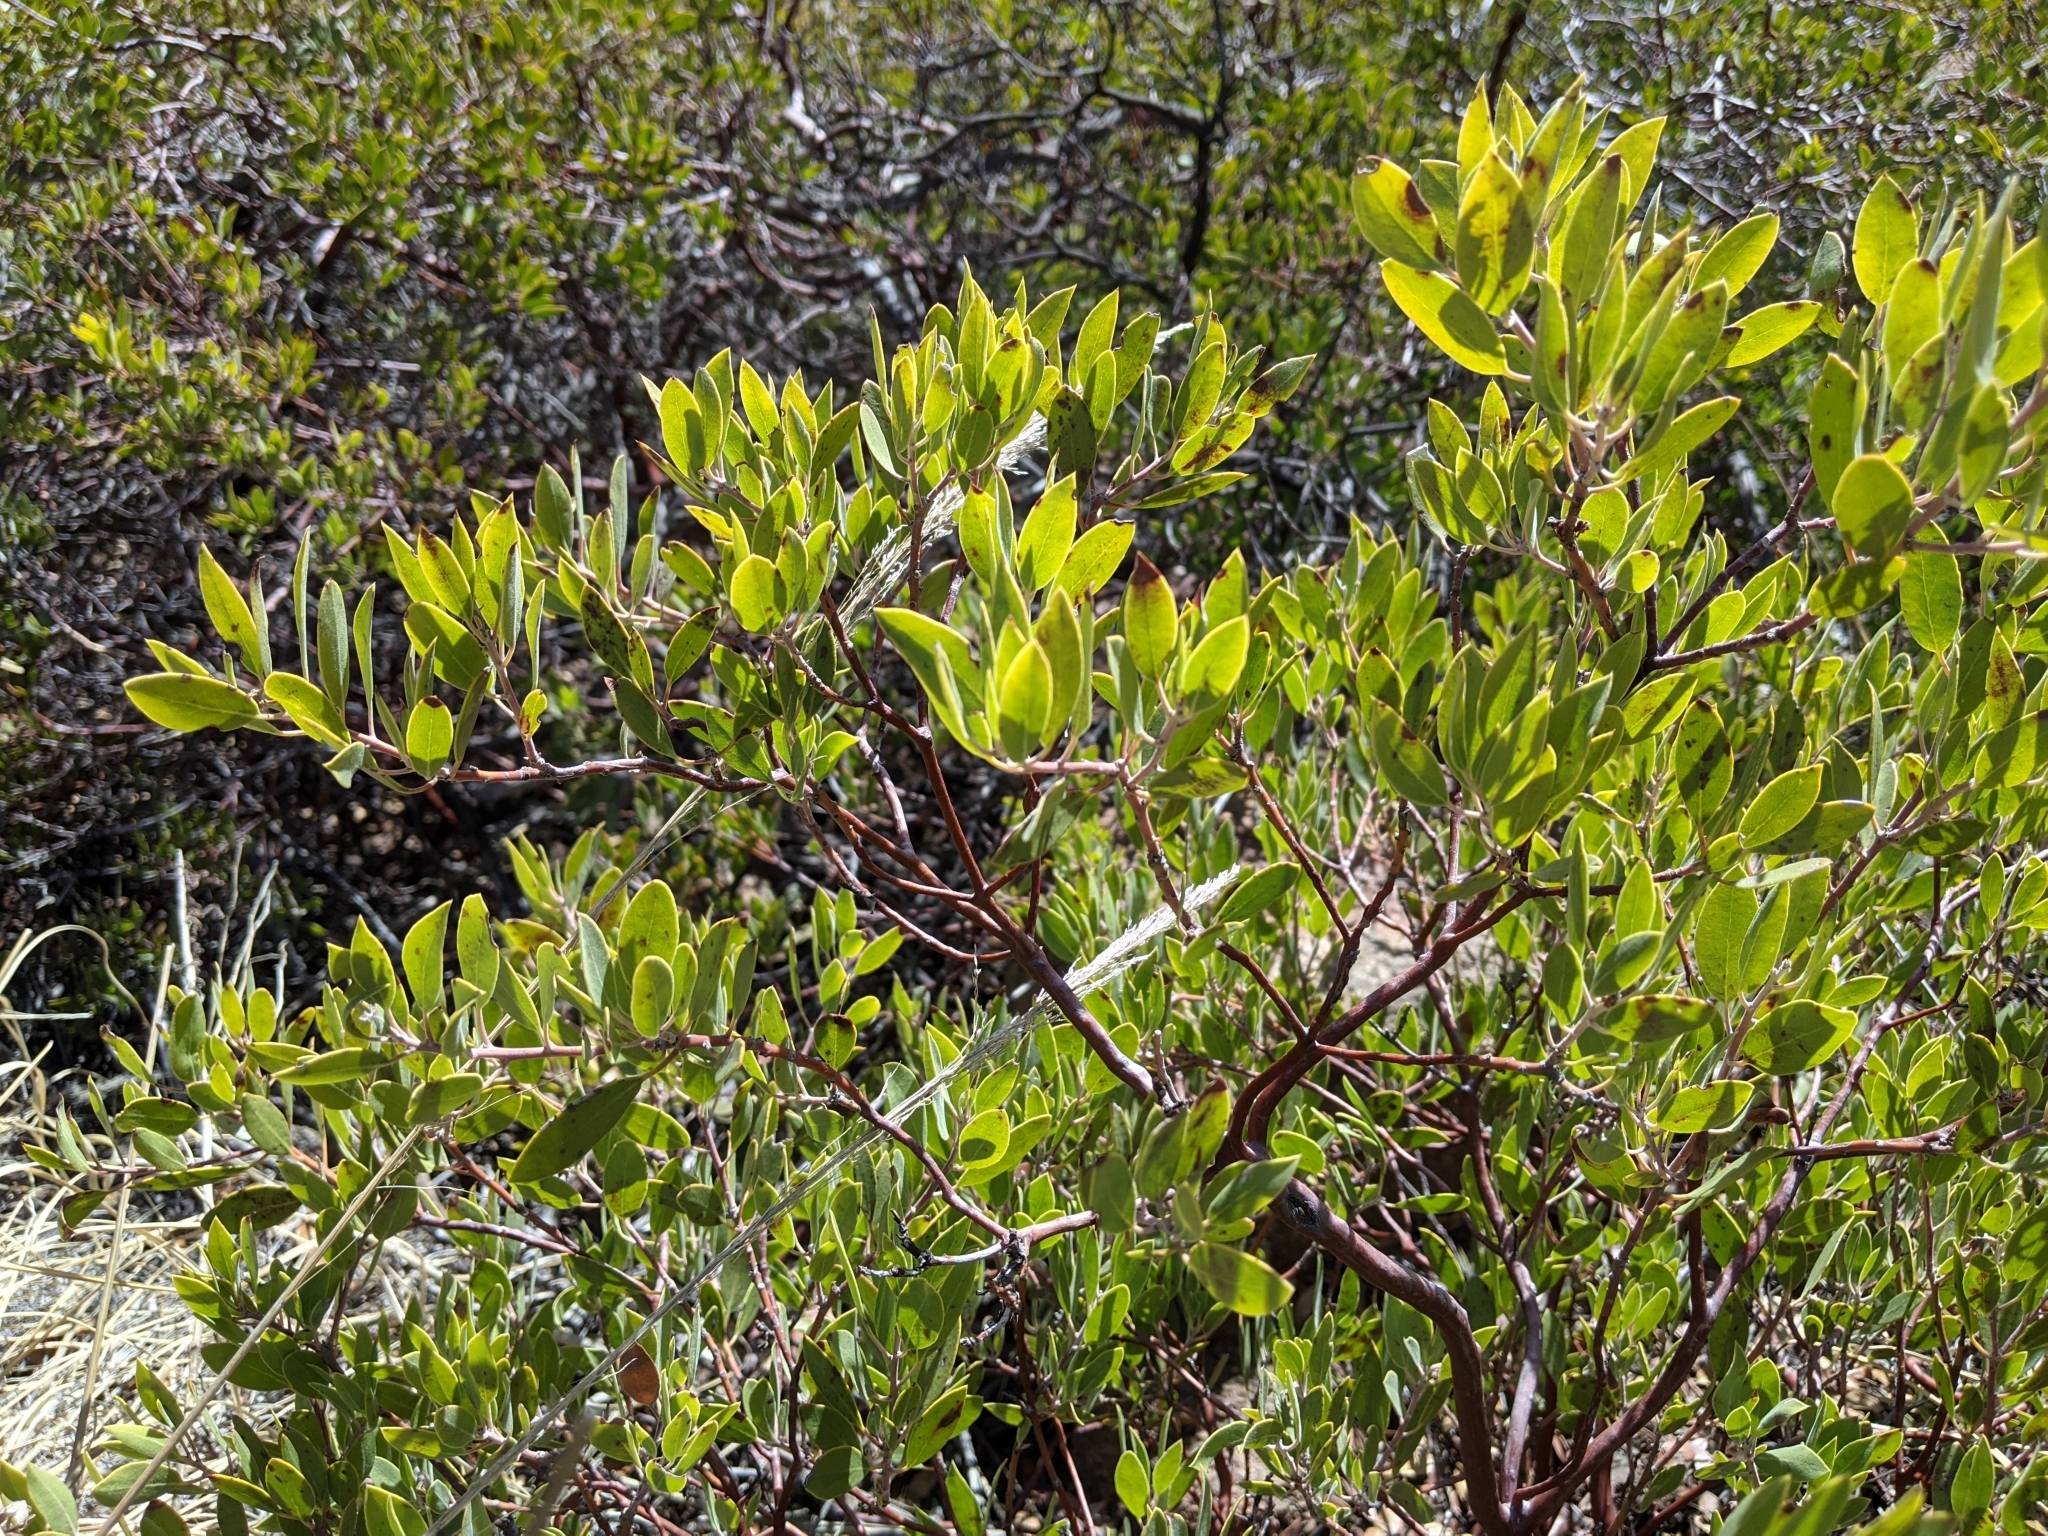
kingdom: Plantae
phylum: Tracheophyta
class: Magnoliopsida
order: Ericales
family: Ericaceae
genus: Arctostaphylos
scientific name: Arctostaphylos pungens
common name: Mexican manzanita
